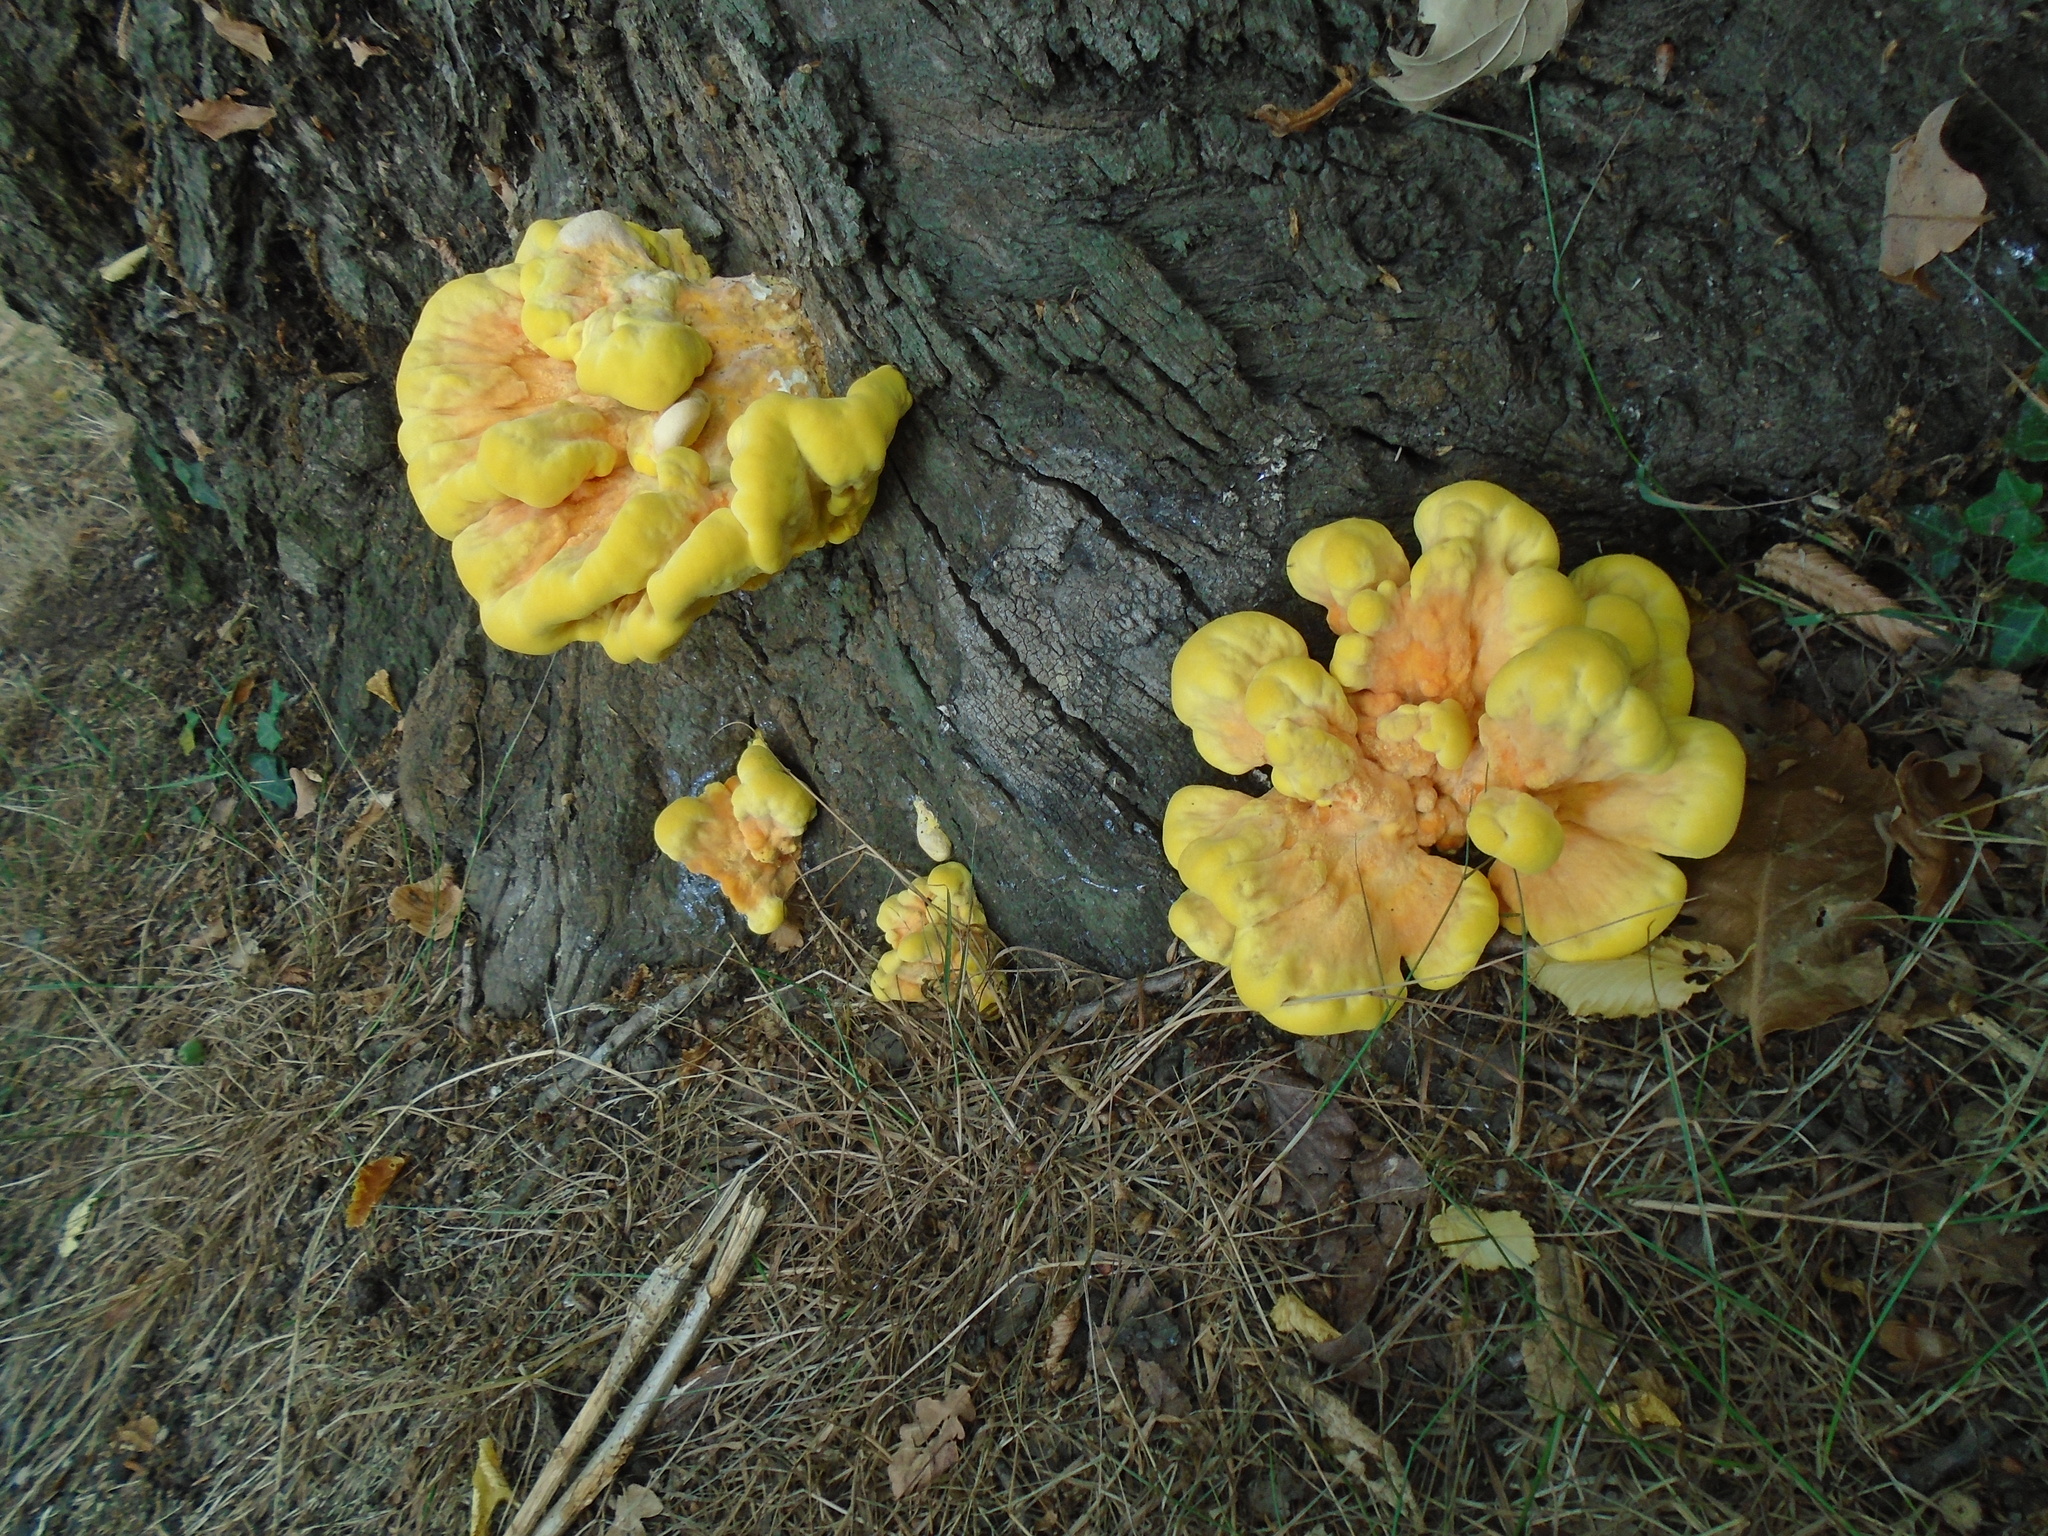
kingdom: Fungi
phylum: Basidiomycota
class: Agaricomycetes
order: Polyporales
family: Laetiporaceae
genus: Laetiporus
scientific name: Laetiporus sulphureus
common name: Chicken of the woods
